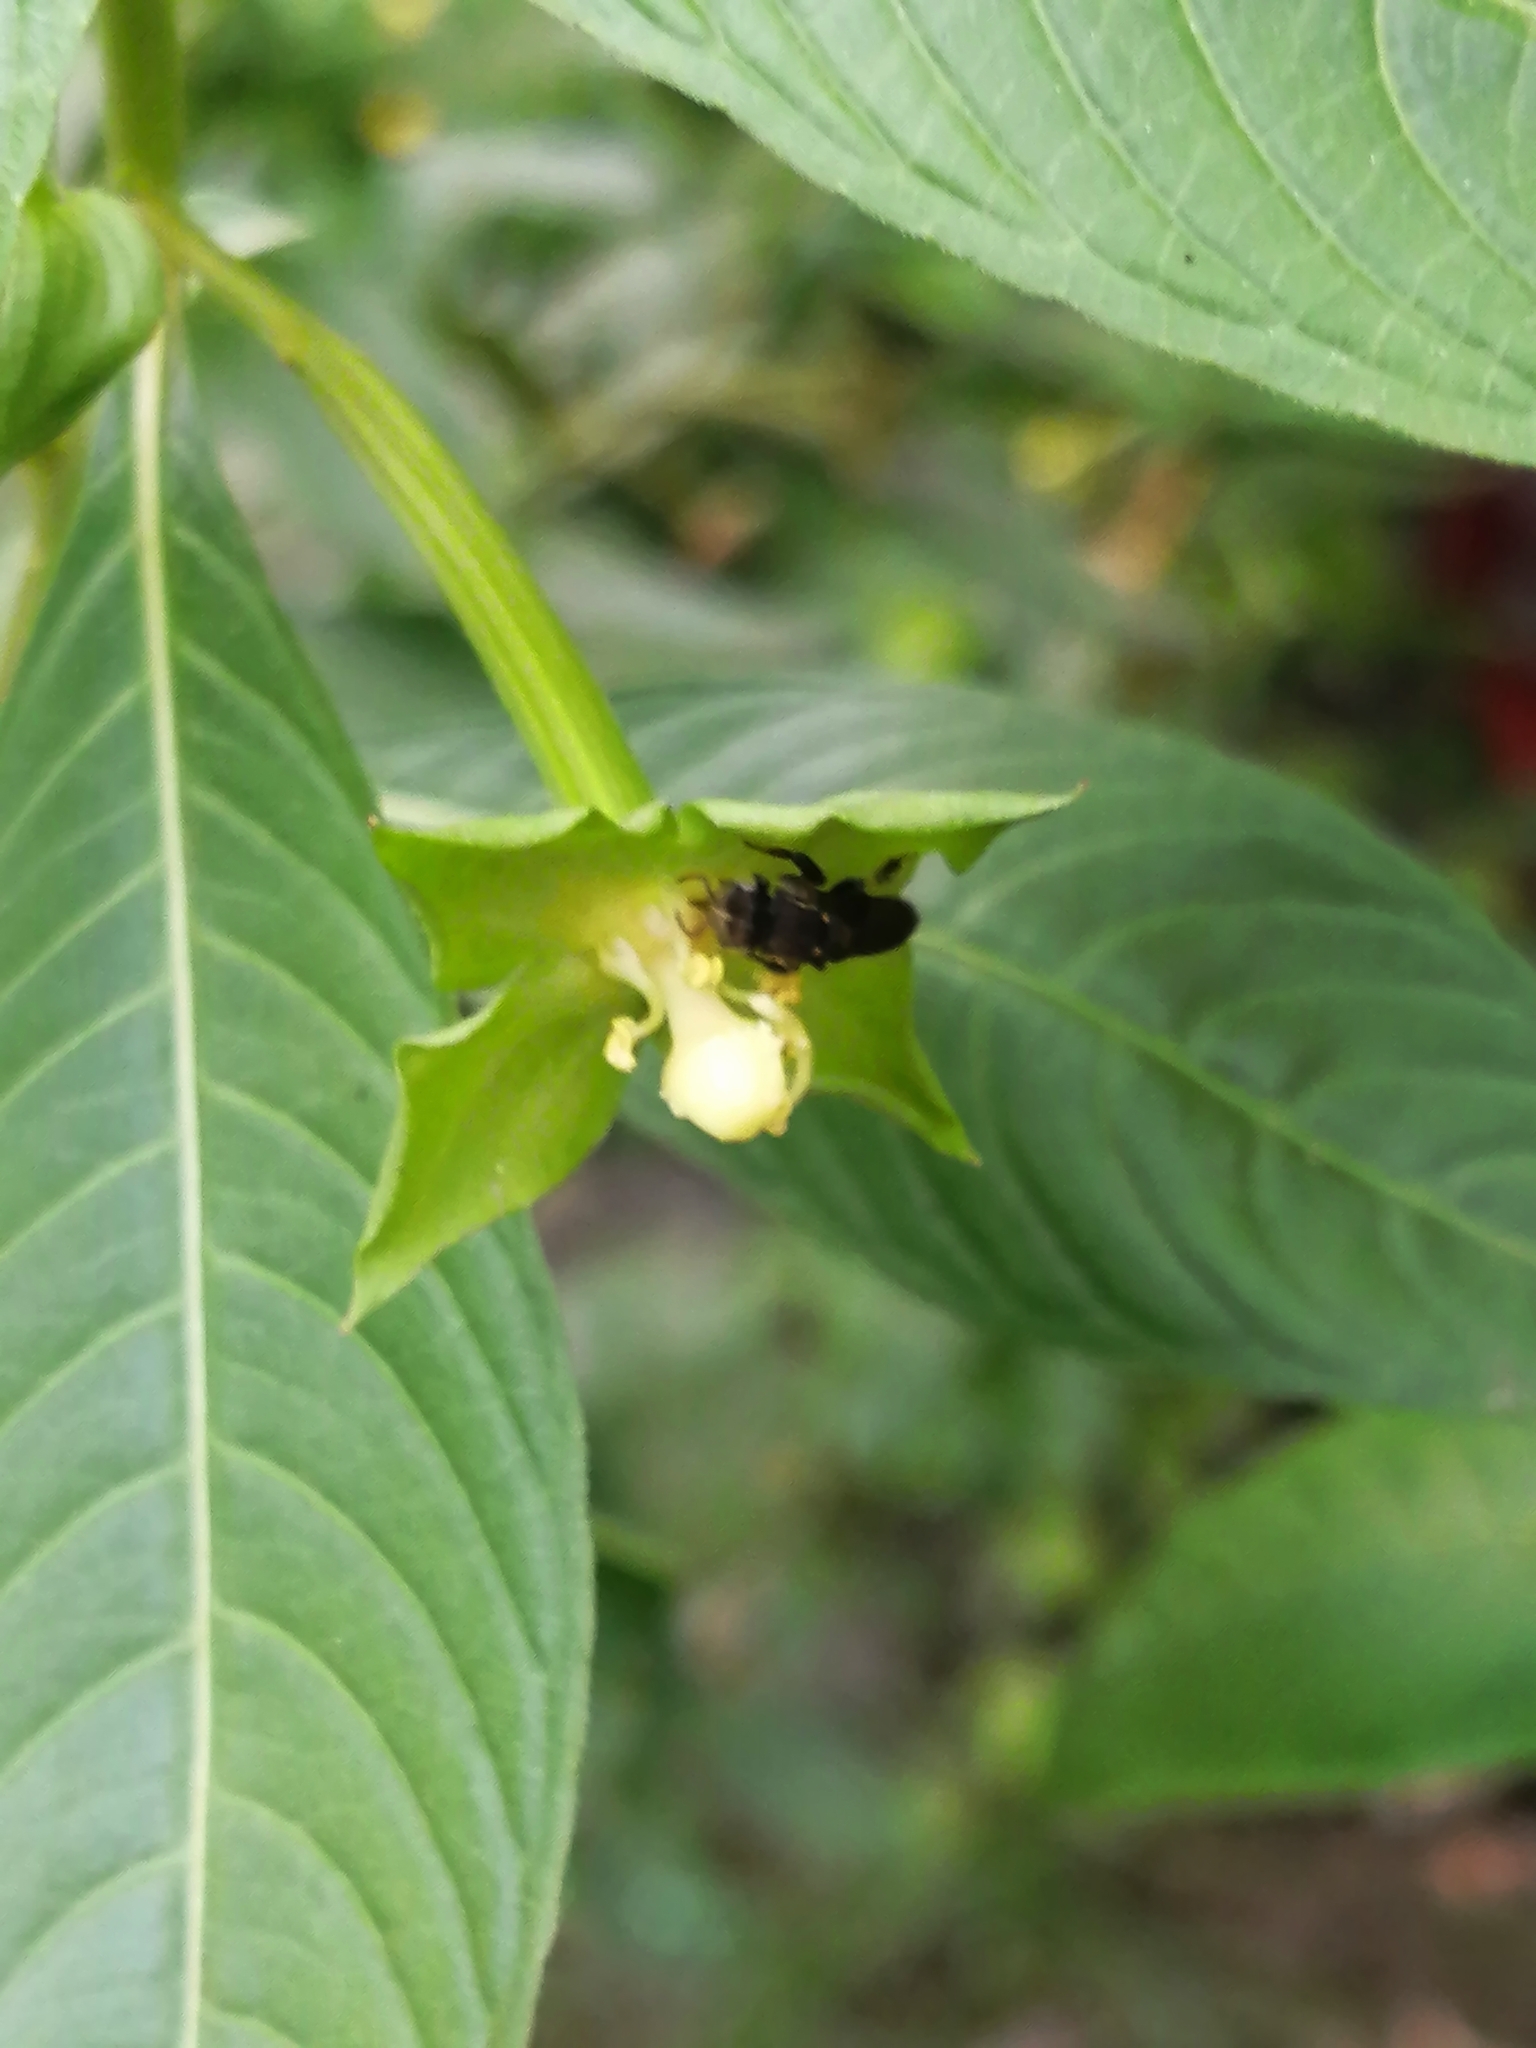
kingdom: Animalia
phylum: Arthropoda
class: Insecta
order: Hymenoptera
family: Apidae
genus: Nannotrigona
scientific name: Nannotrigona perilampoides
